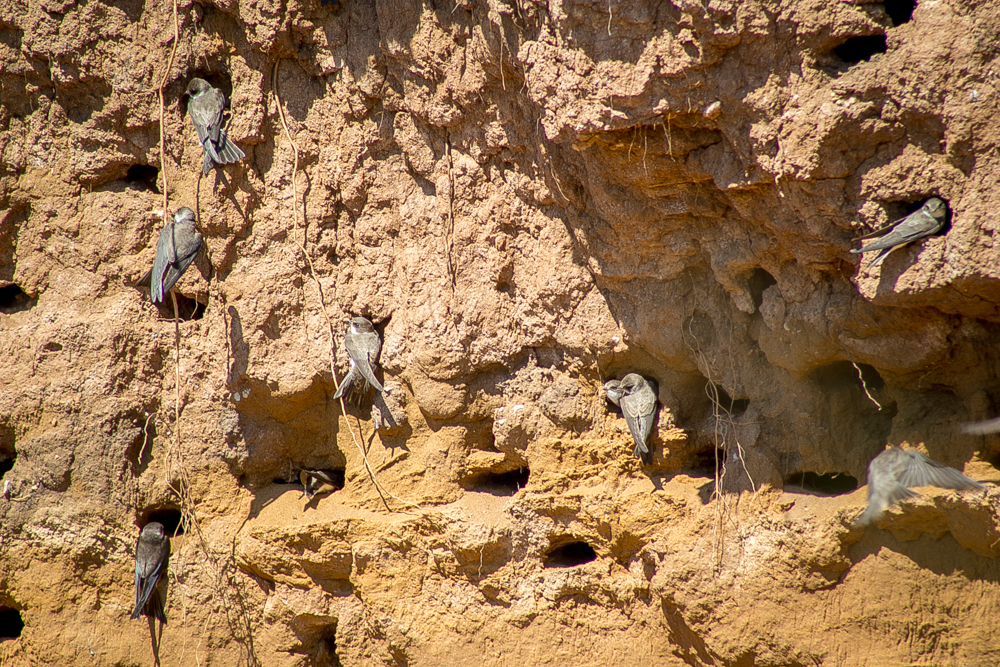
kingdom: Animalia
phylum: Chordata
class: Aves
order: Passeriformes
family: Hirundinidae
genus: Riparia
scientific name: Riparia riparia
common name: Sand martin
